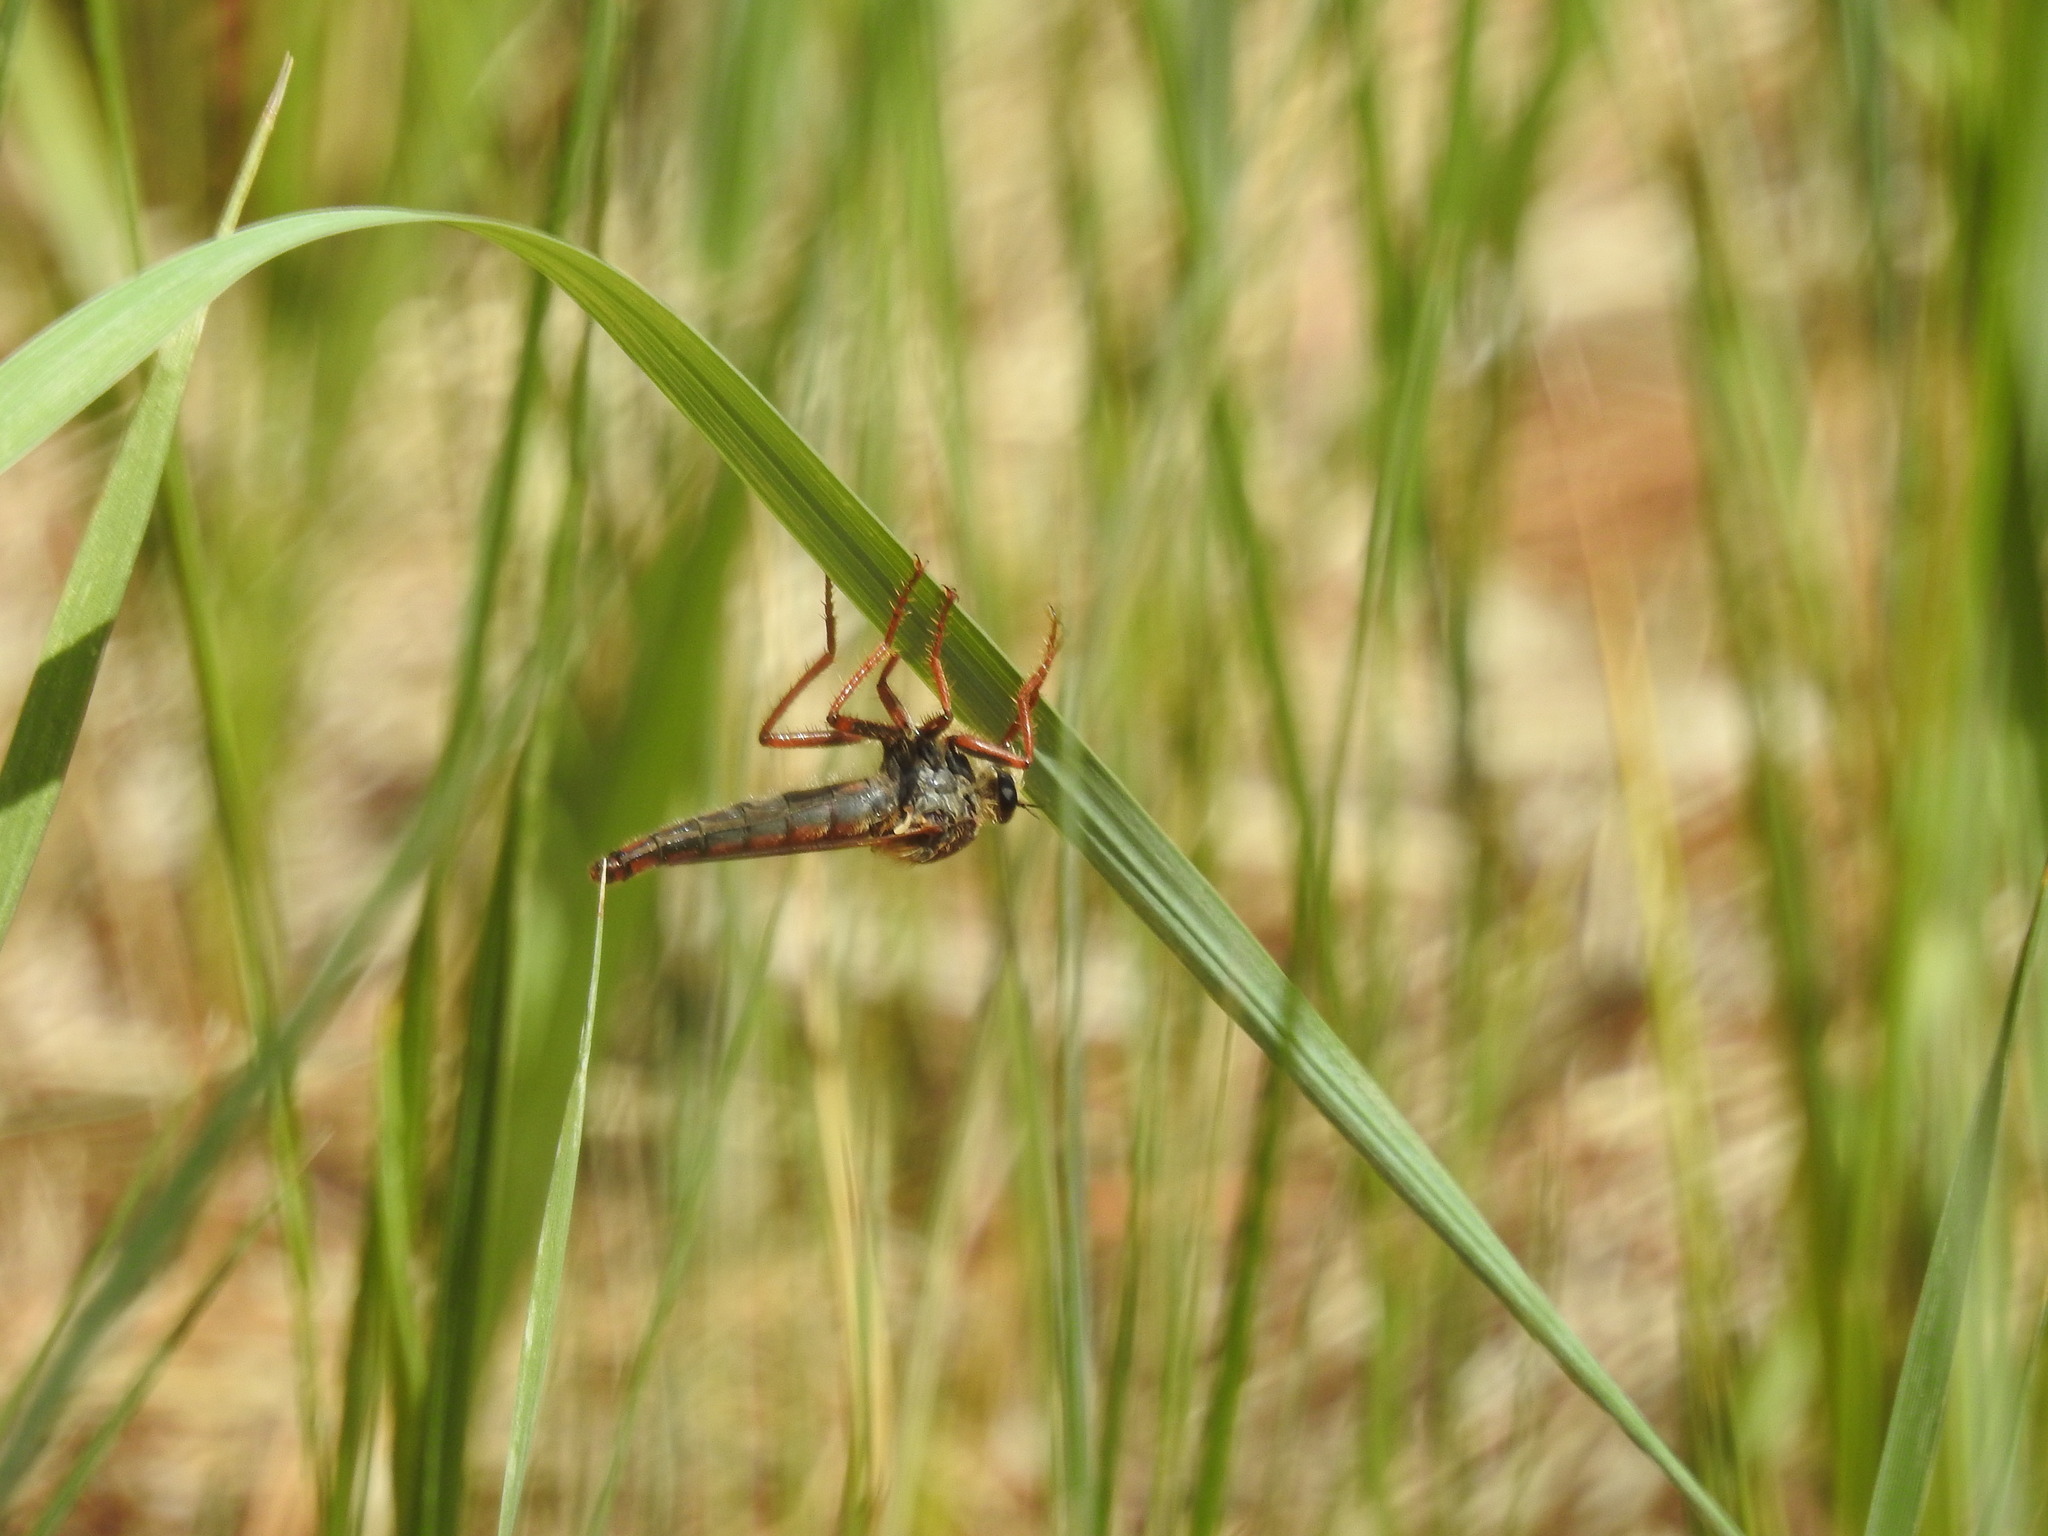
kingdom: Animalia
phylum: Arthropoda
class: Insecta
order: Diptera
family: Asilidae
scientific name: Asilidae
